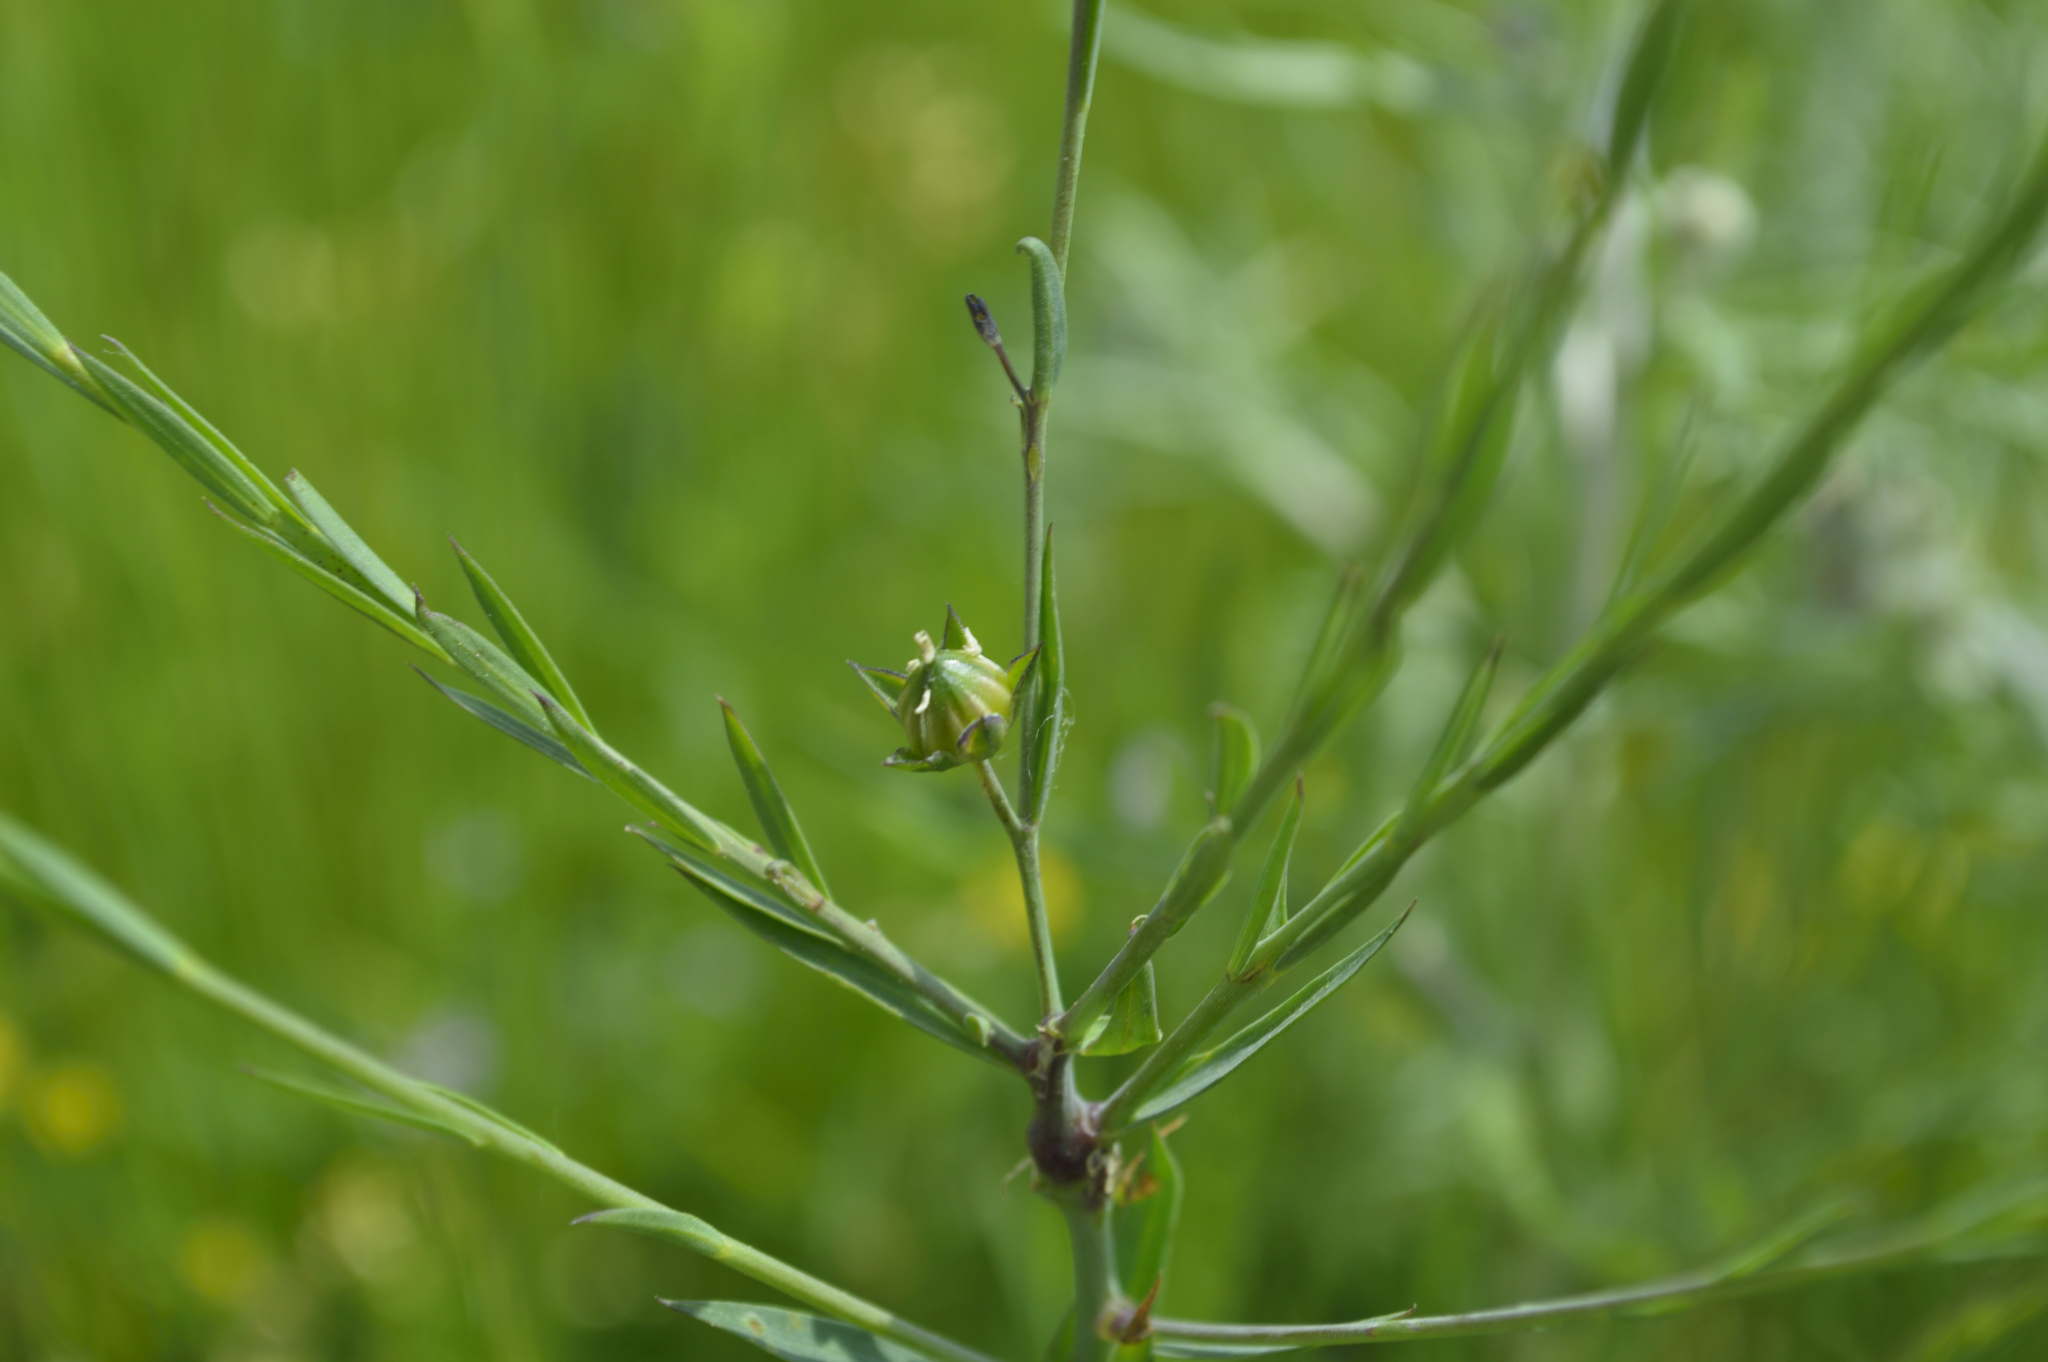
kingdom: Plantae
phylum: Tracheophyta
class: Magnoliopsida
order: Malpighiales
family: Linaceae
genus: Linum
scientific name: Linum bienne
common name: Pale flax
